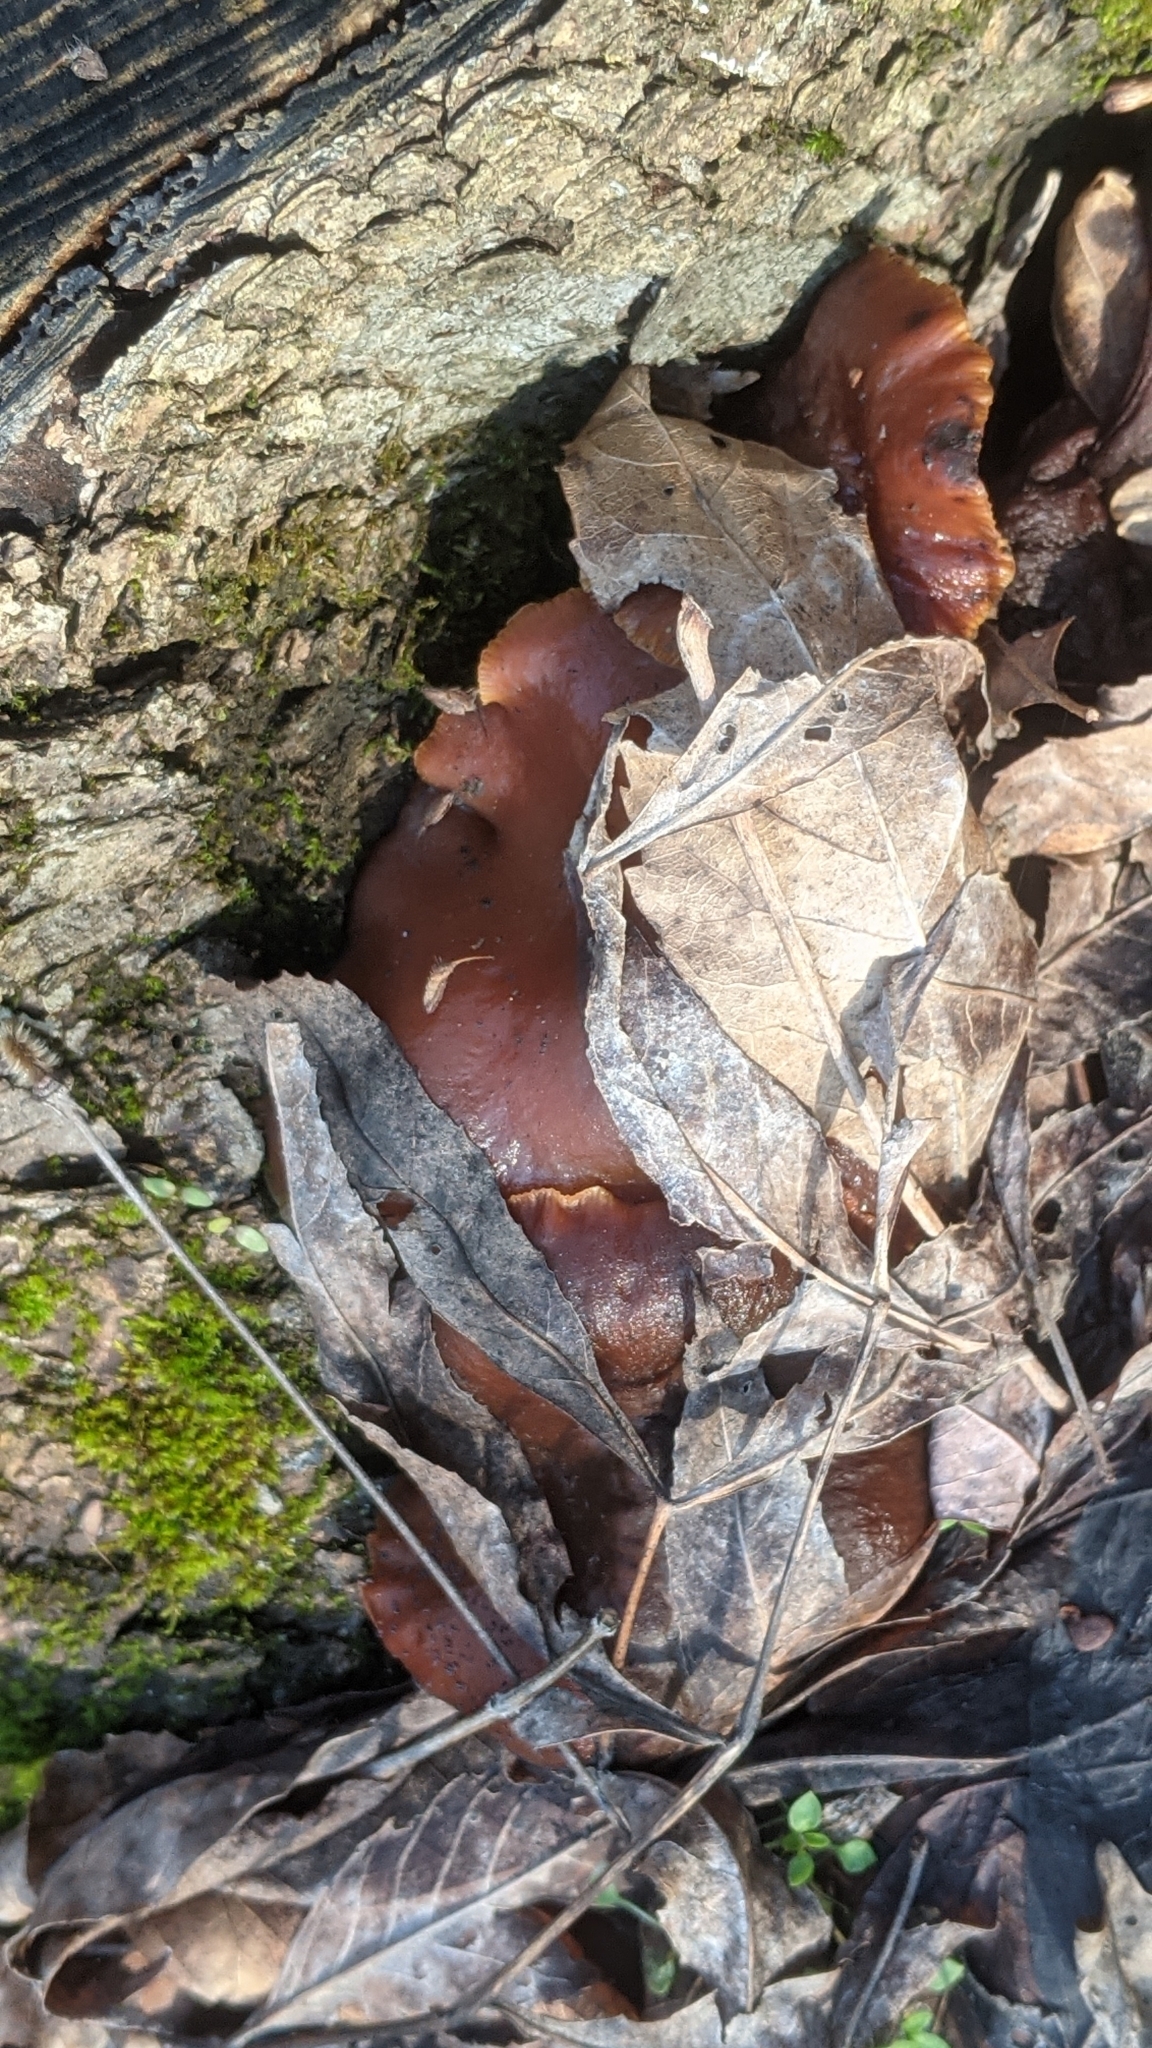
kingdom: Fungi
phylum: Basidiomycota
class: Agaricomycetes
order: Agaricales
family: Physalacriaceae
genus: Flammulina
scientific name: Flammulina
